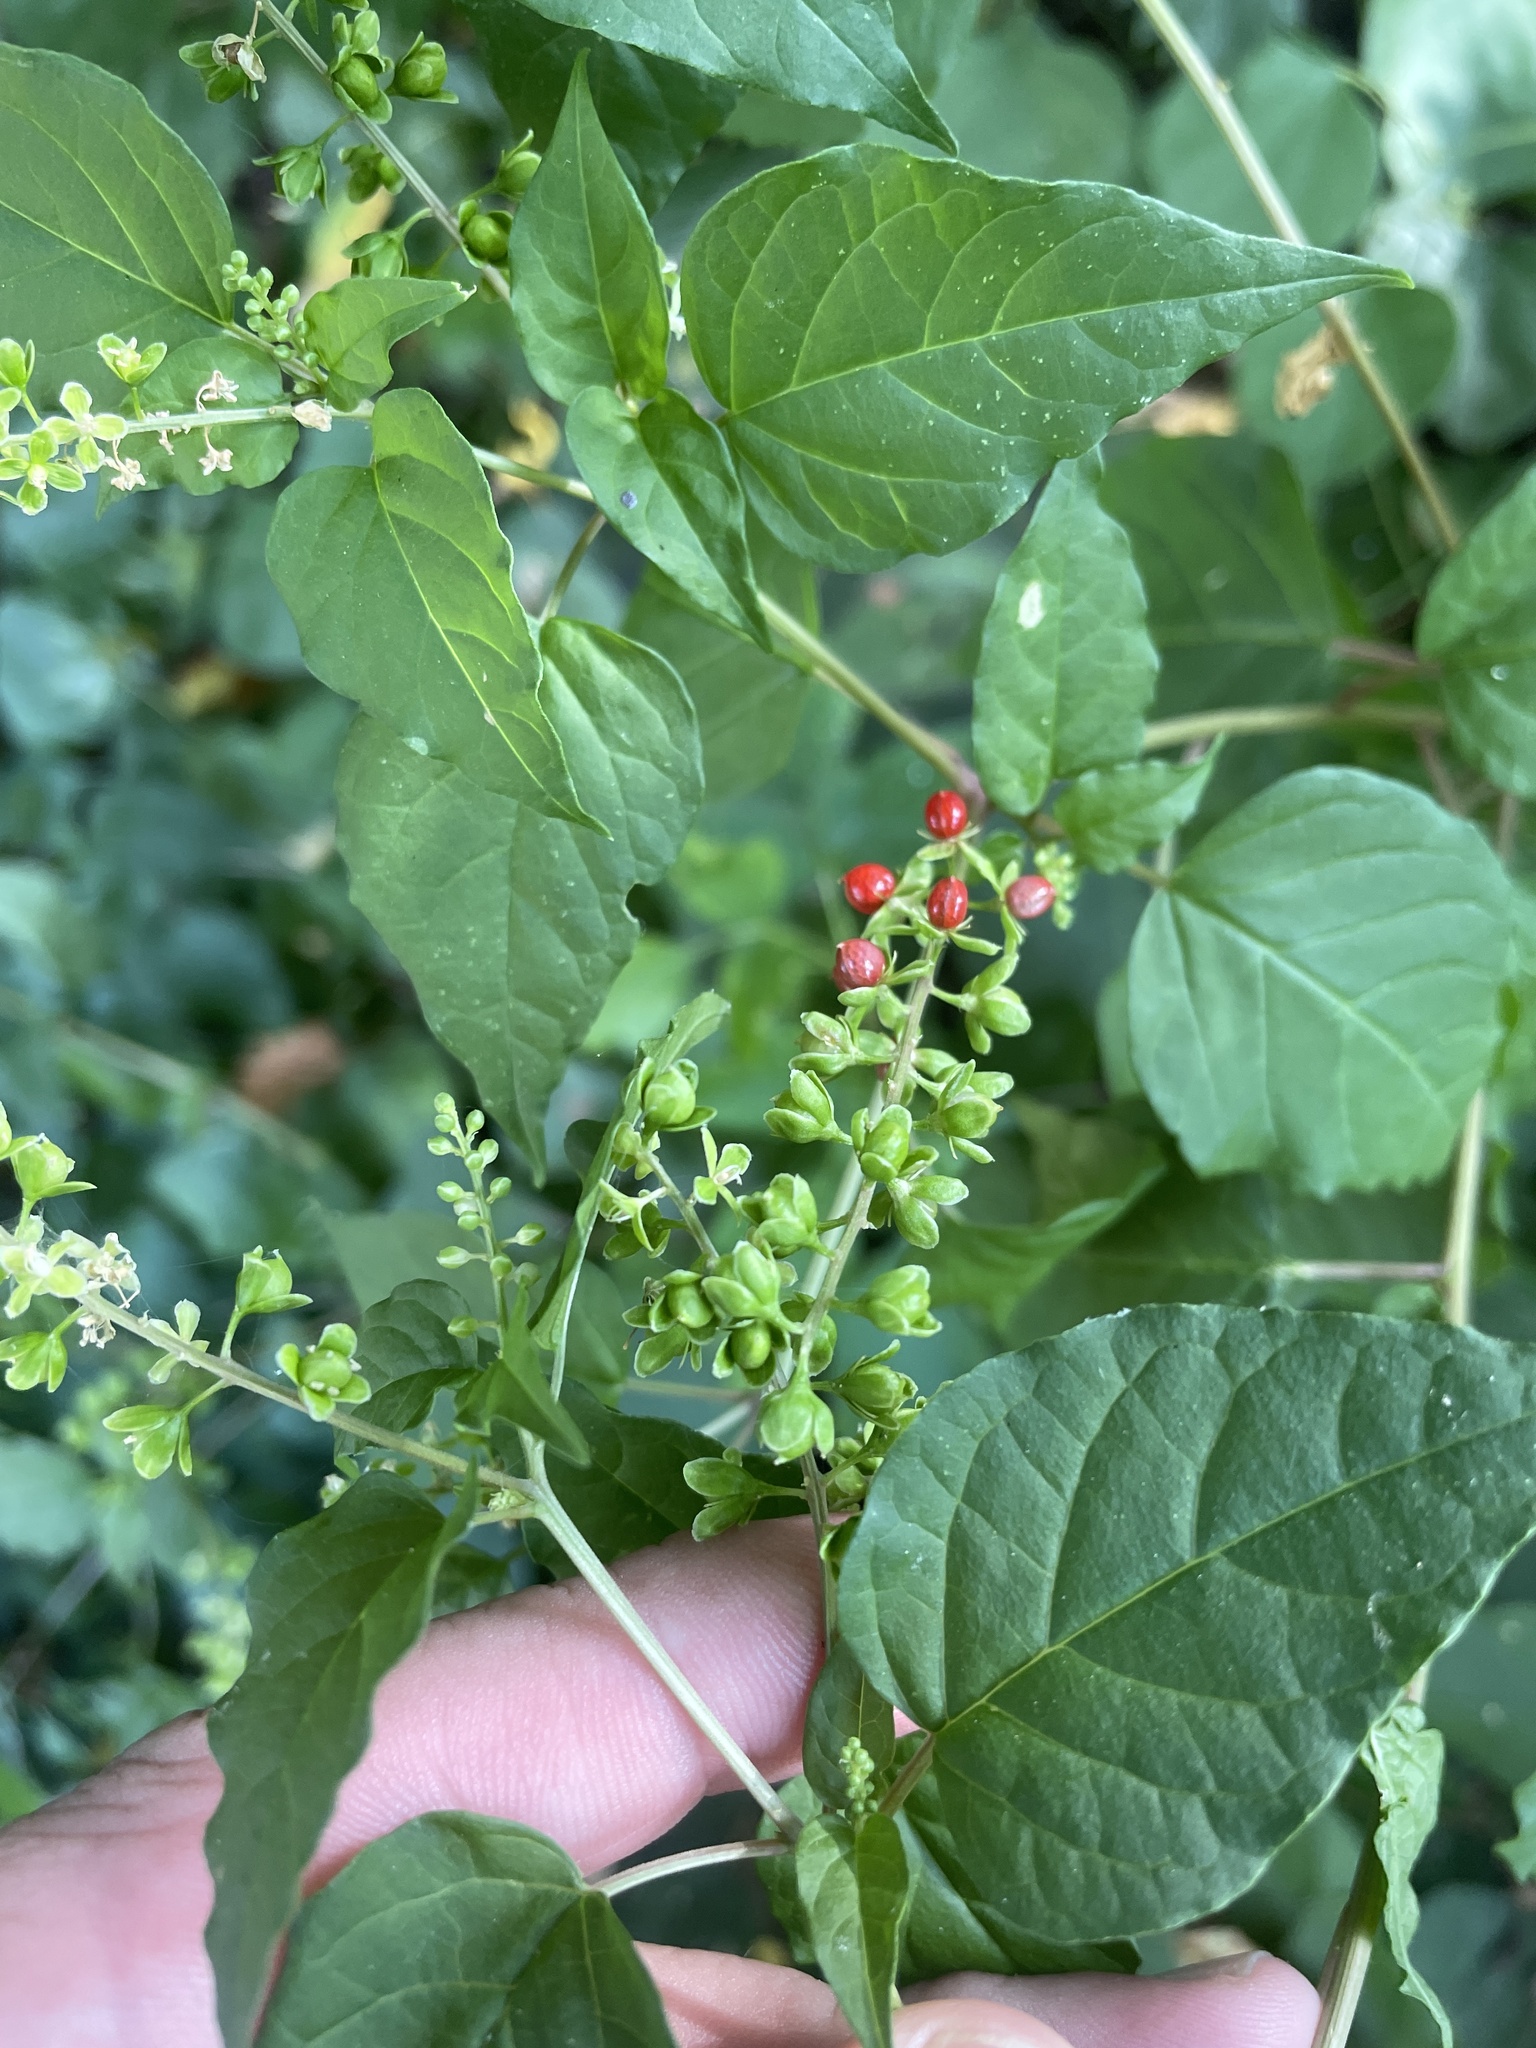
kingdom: Plantae
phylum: Tracheophyta
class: Magnoliopsida
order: Caryophyllales
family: Phytolaccaceae
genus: Rivina
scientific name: Rivina humilis
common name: Rougeplant
